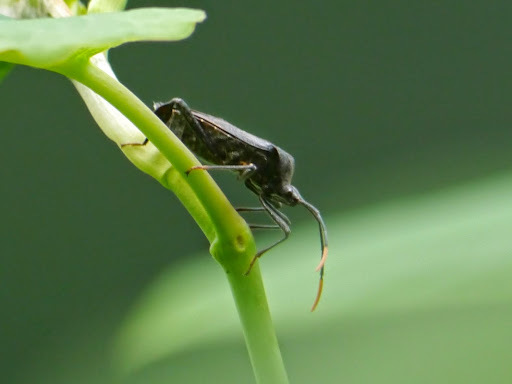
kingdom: Animalia
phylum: Arthropoda
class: Insecta
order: Hemiptera
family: Coreidae
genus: Acanthocephala
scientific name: Acanthocephala terminalis
